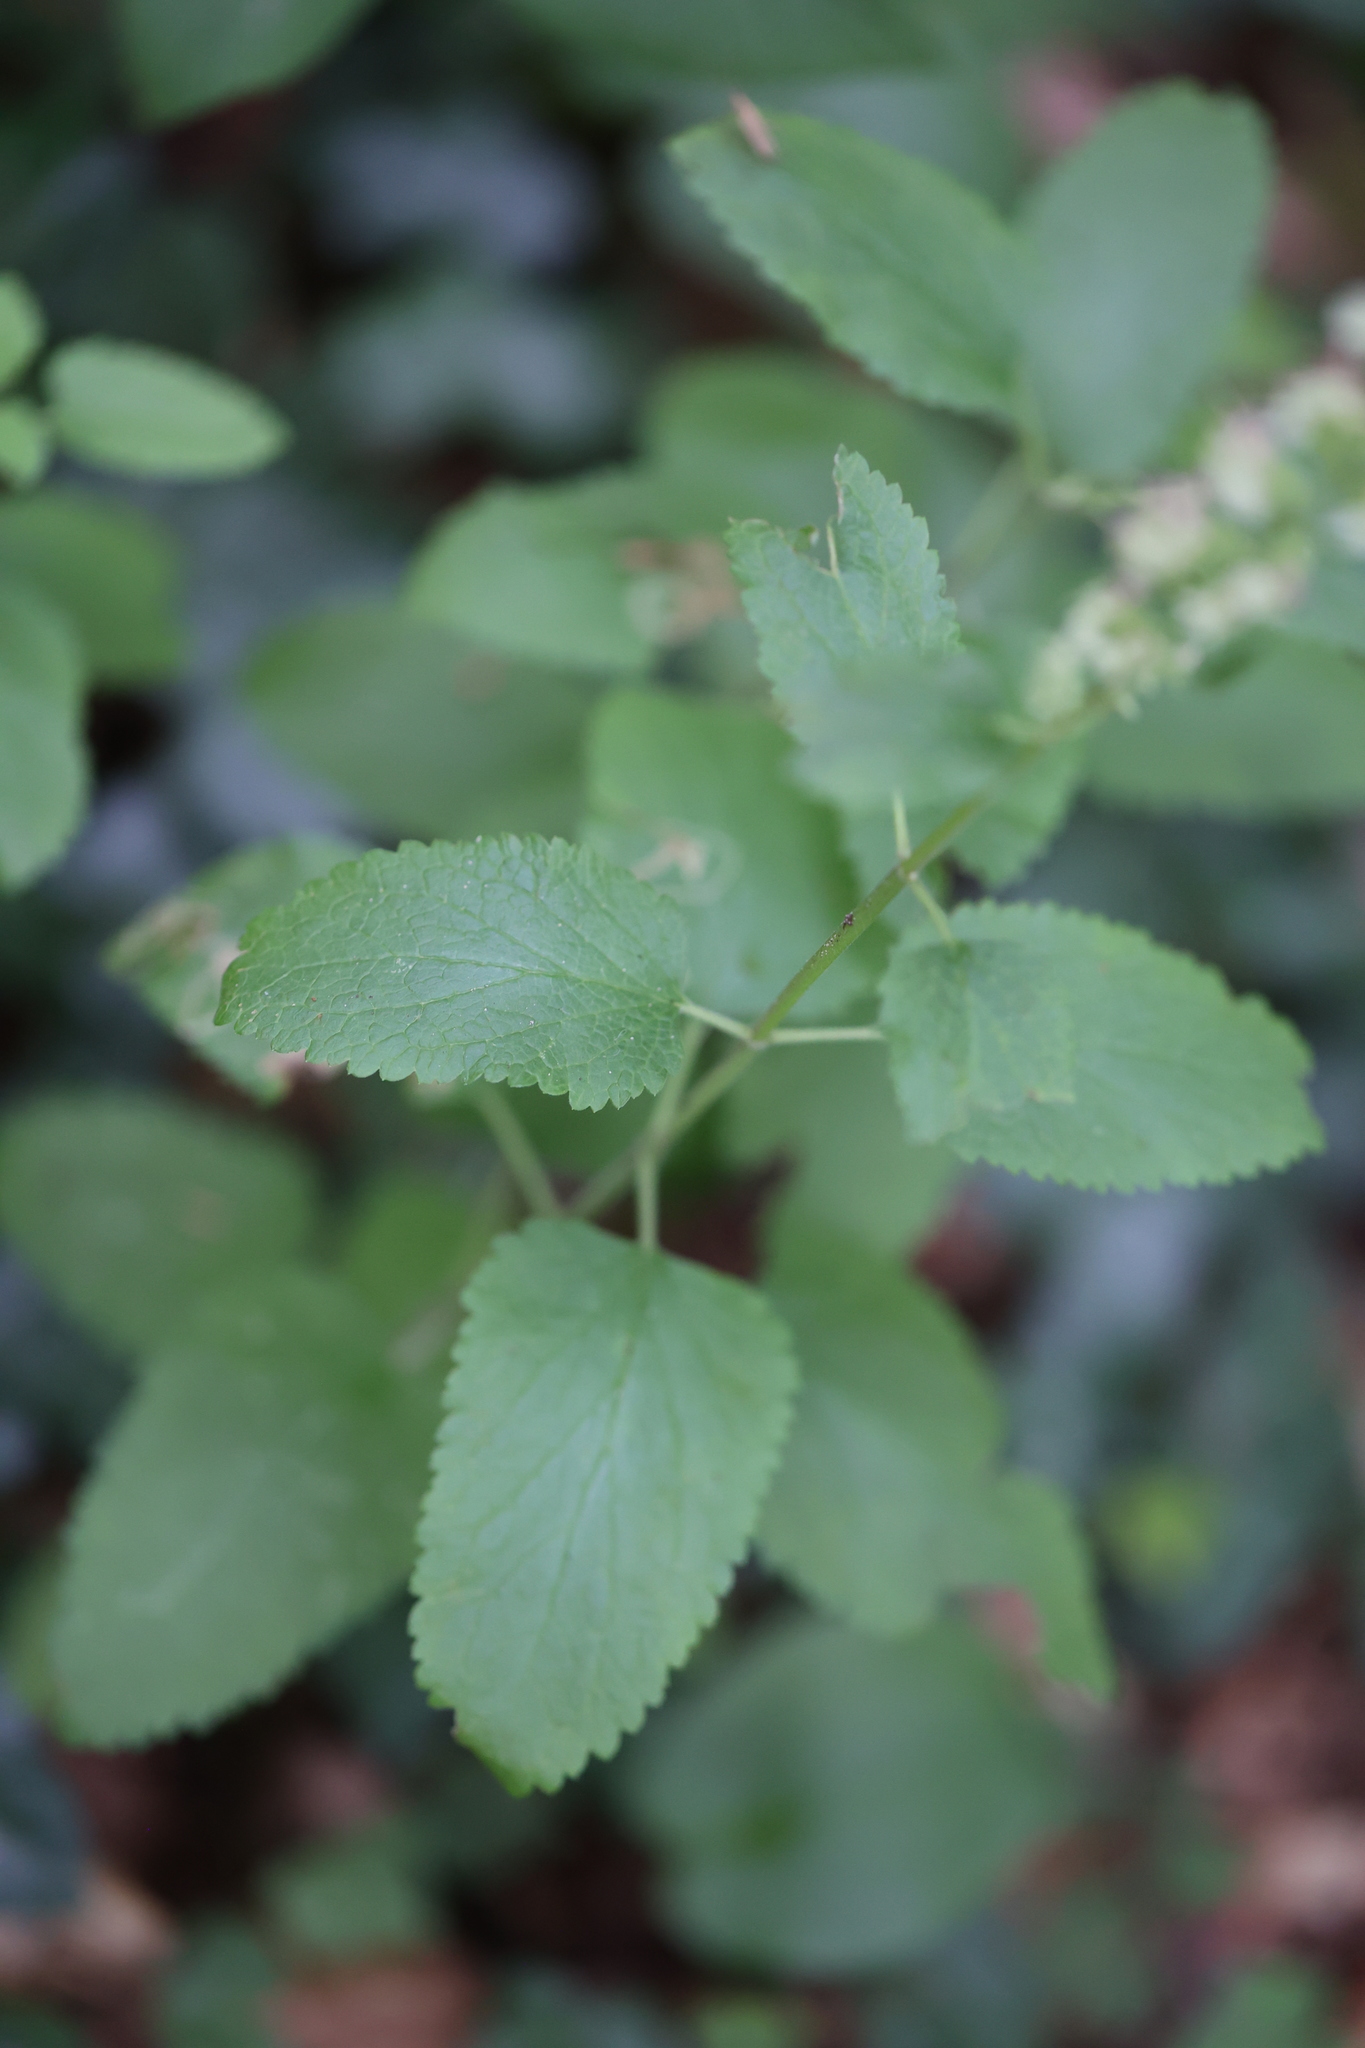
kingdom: Plantae
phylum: Tracheophyta
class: Magnoliopsida
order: Lamiales
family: Lamiaceae
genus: Teucrium
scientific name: Teucrium scorodonia
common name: Woodland germander
